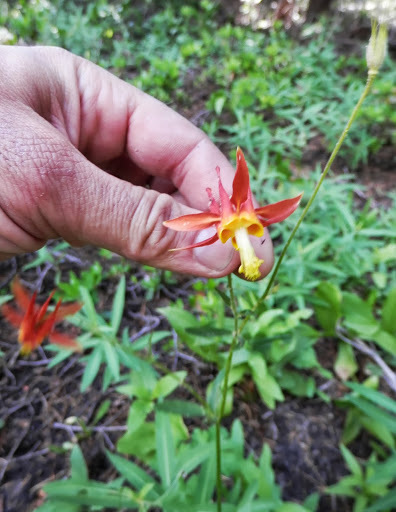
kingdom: Plantae
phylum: Tracheophyta
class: Magnoliopsida
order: Ranunculales
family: Ranunculaceae
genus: Aquilegia
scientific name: Aquilegia formosa
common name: Sitka columbine
